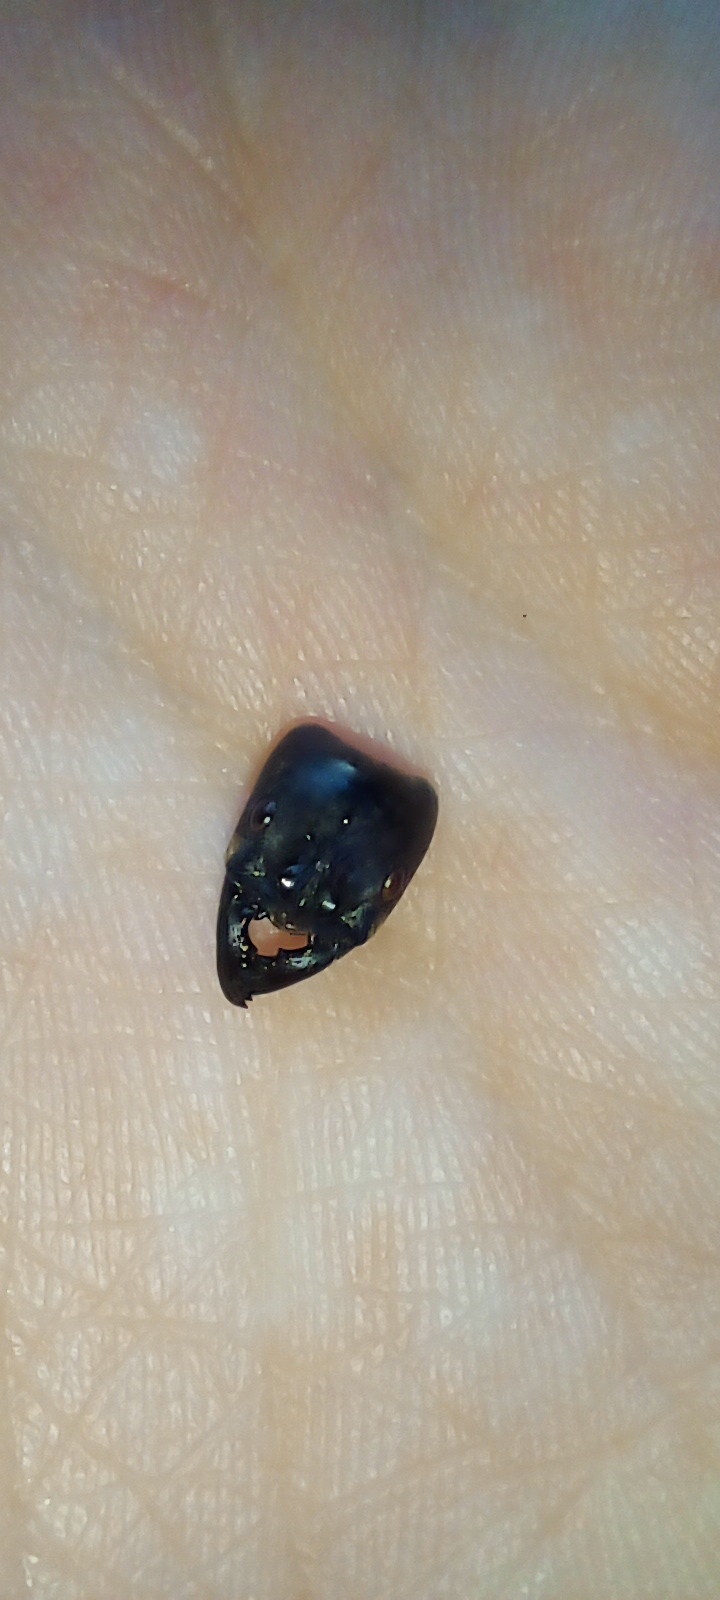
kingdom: Animalia
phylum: Arthropoda
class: Insecta
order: Hymenoptera
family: Formicidae
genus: Dinoponera
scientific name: Dinoponera grandis
